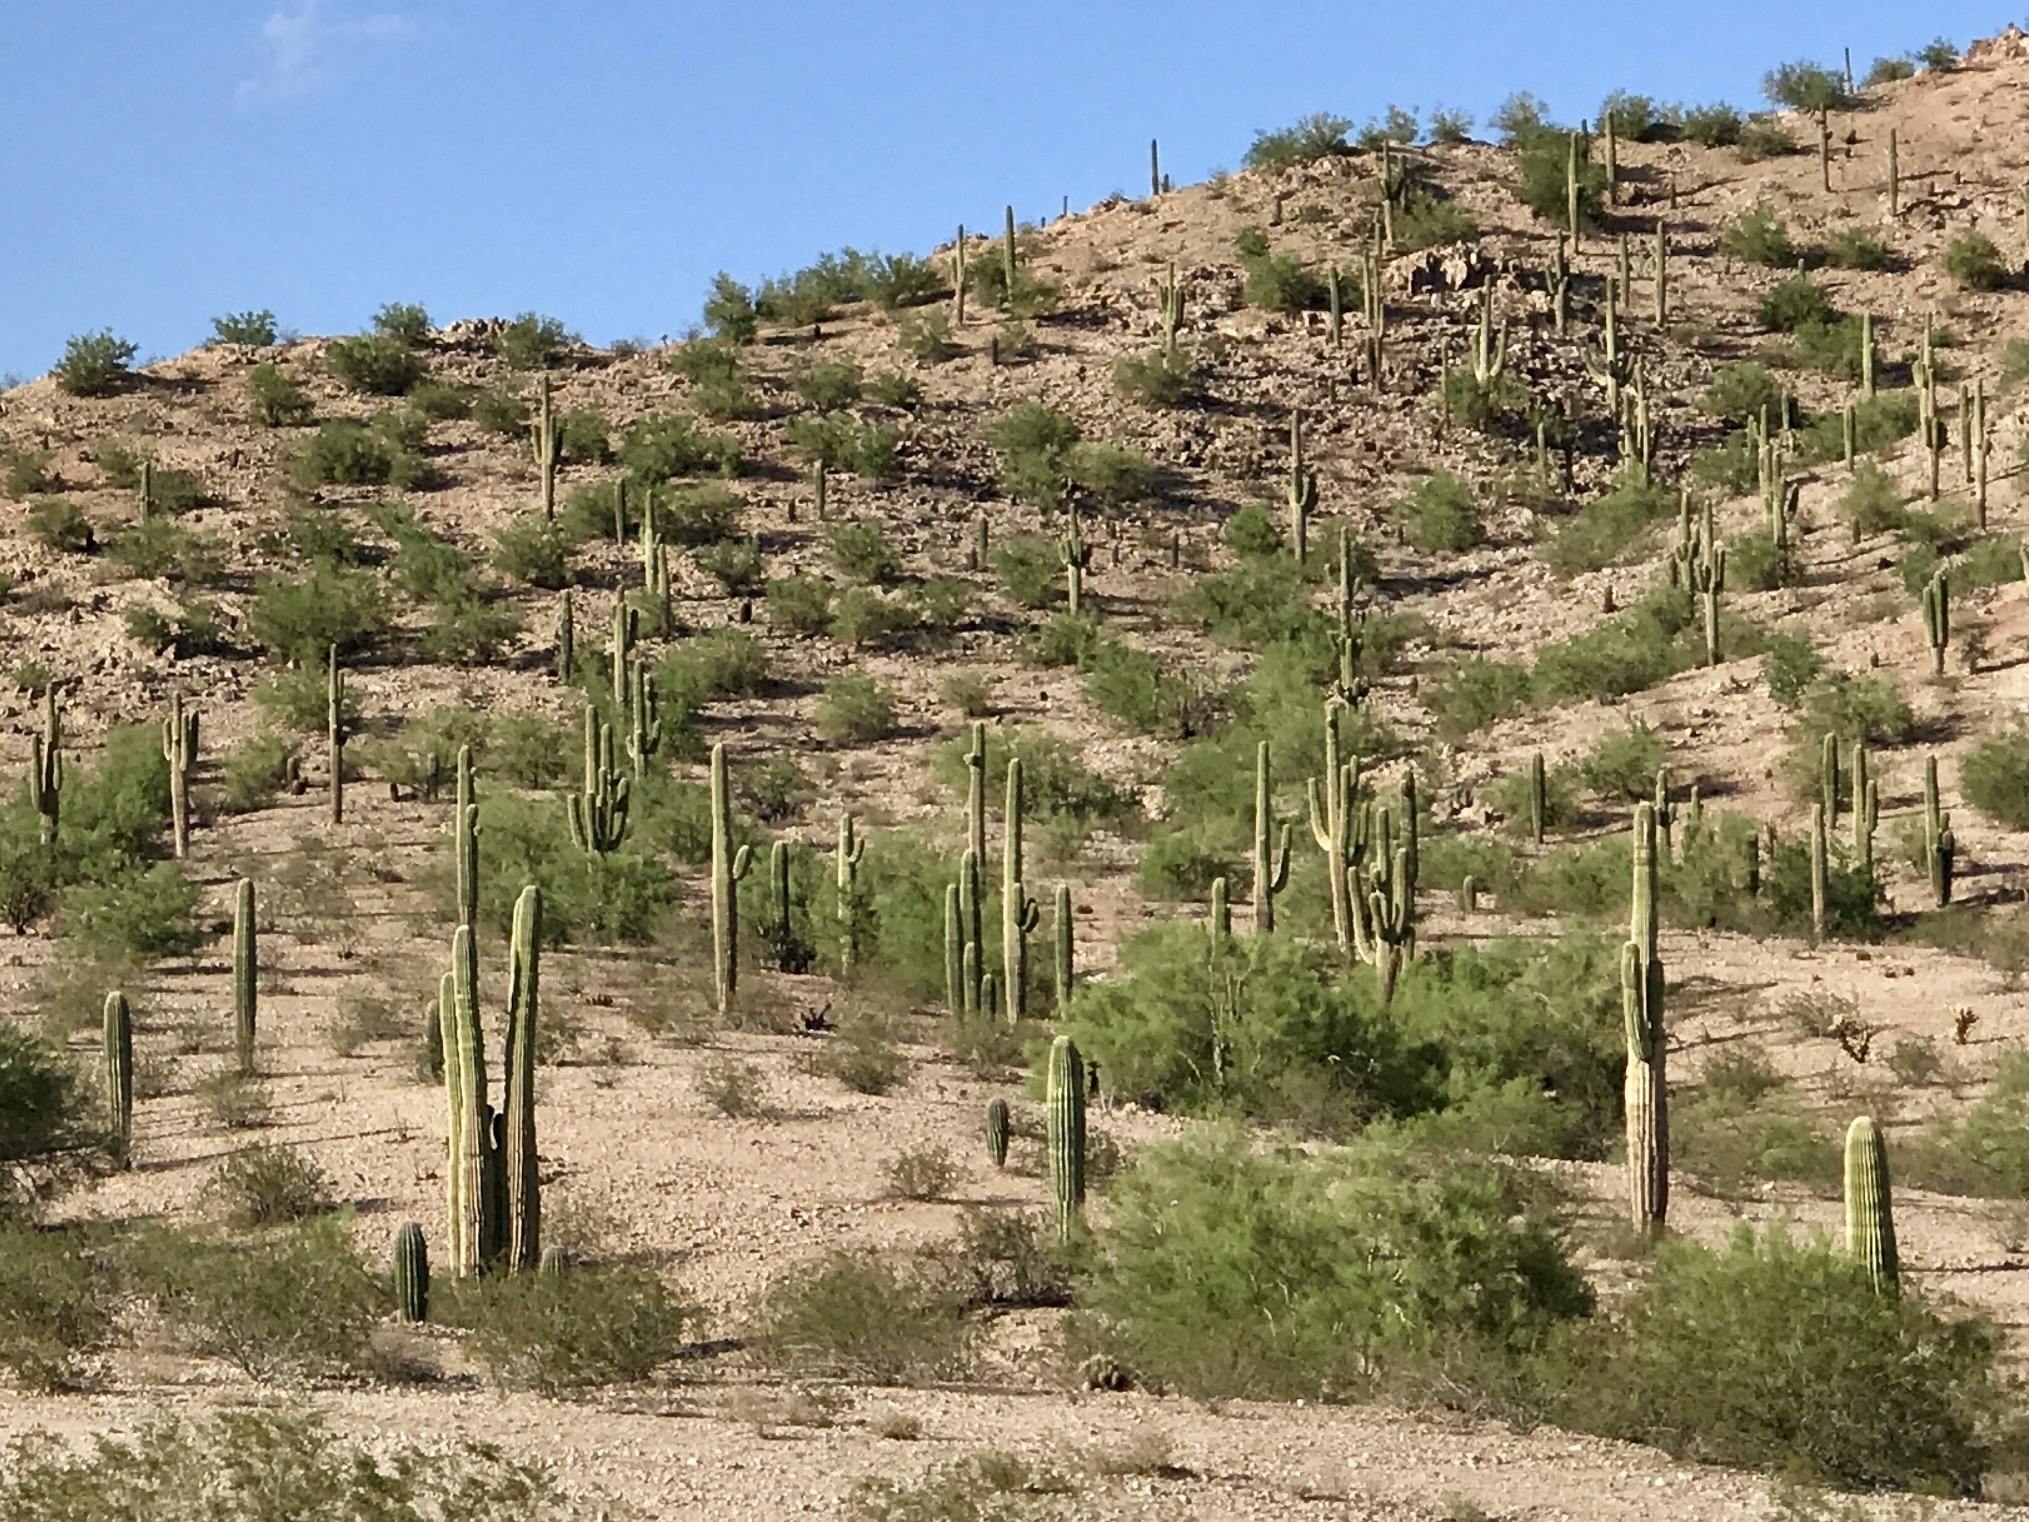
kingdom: Plantae
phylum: Tracheophyta
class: Magnoliopsida
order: Caryophyllales
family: Cactaceae
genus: Carnegiea
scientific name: Carnegiea gigantea
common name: Saguaro
